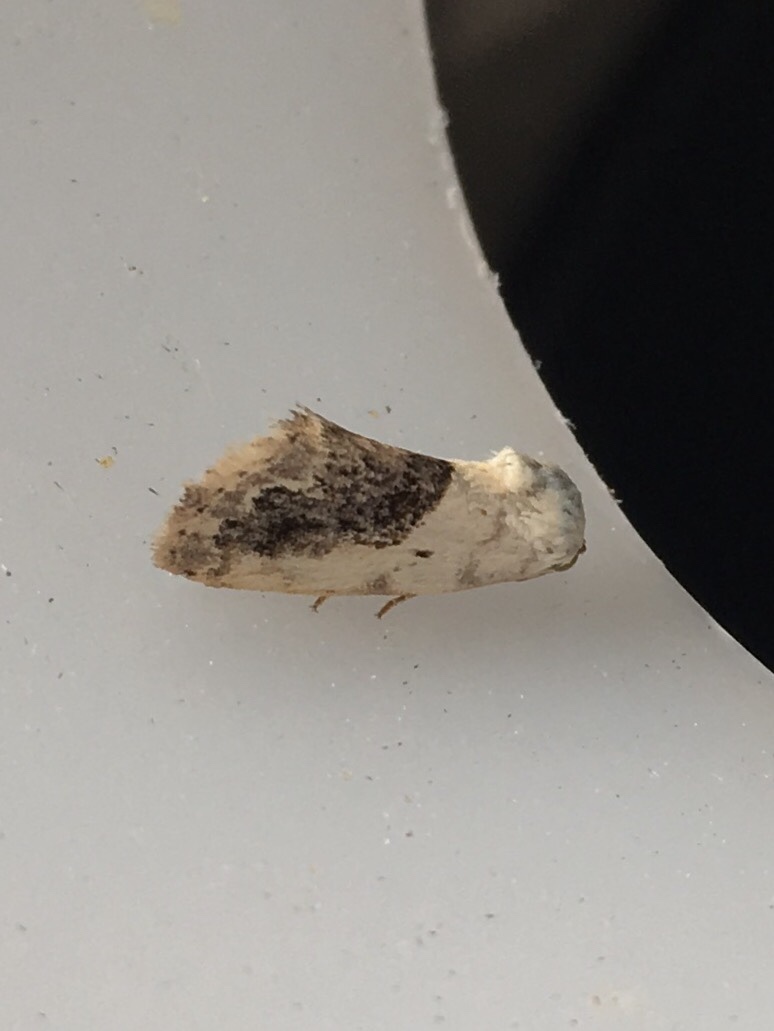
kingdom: Animalia
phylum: Arthropoda
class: Insecta
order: Lepidoptera
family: Noctuidae
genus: Acontia
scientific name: Acontia erastrioides
